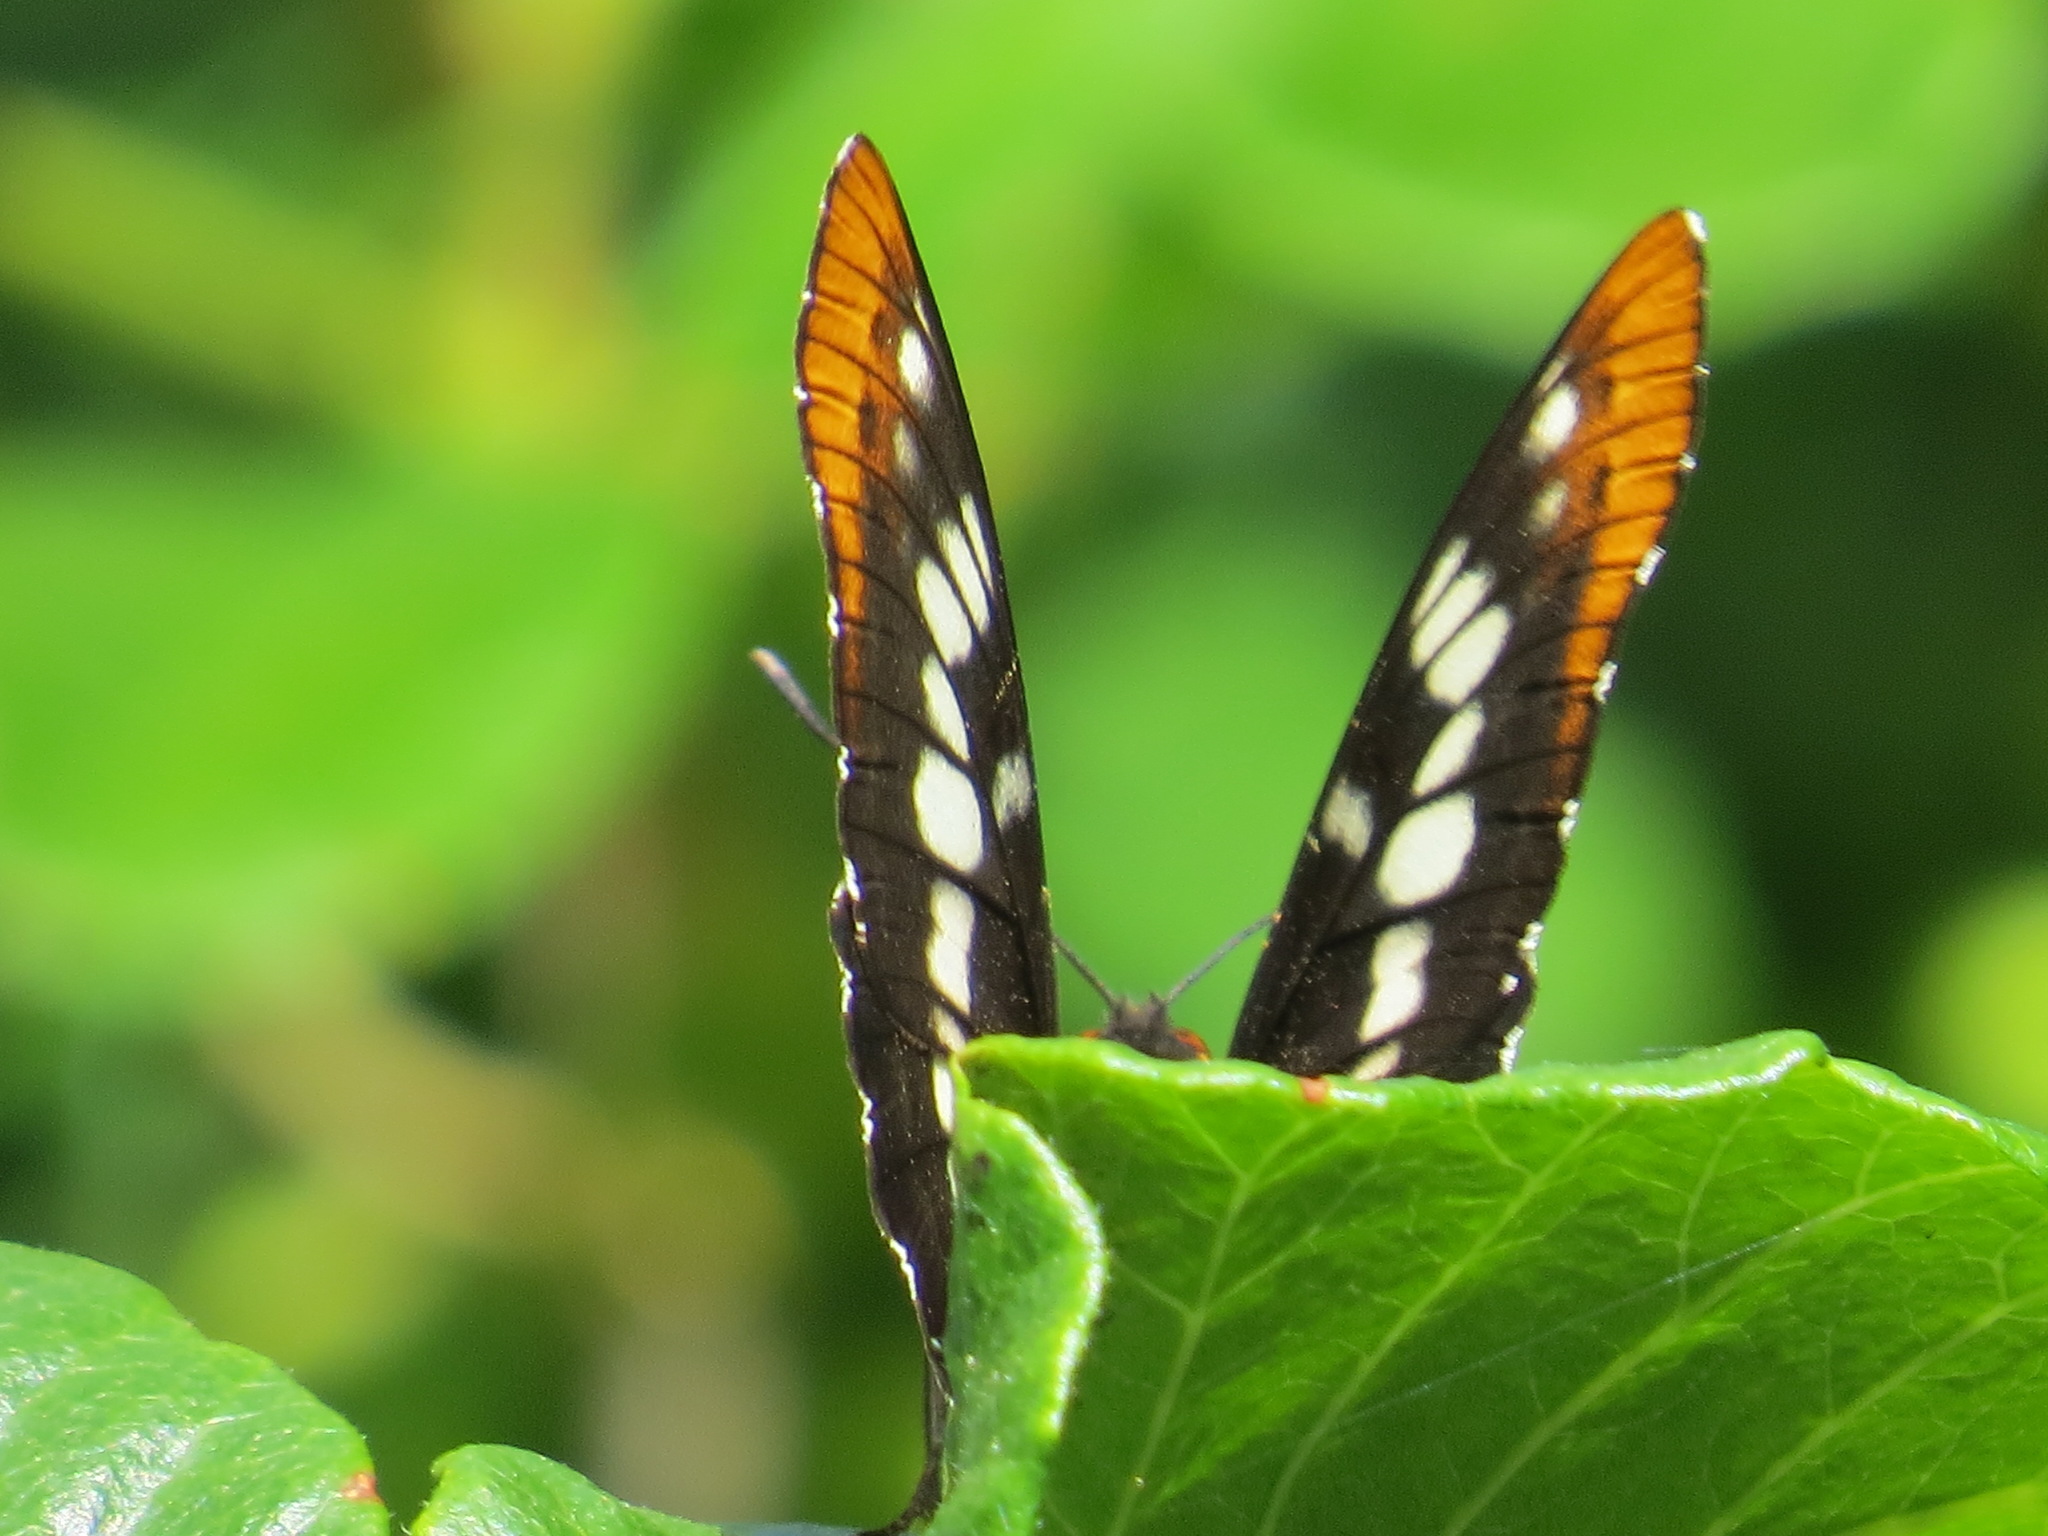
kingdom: Animalia
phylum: Arthropoda
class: Insecta
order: Lepidoptera
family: Nymphalidae
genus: Limenitis
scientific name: Limenitis lorquini
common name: Lorquin's admiral
